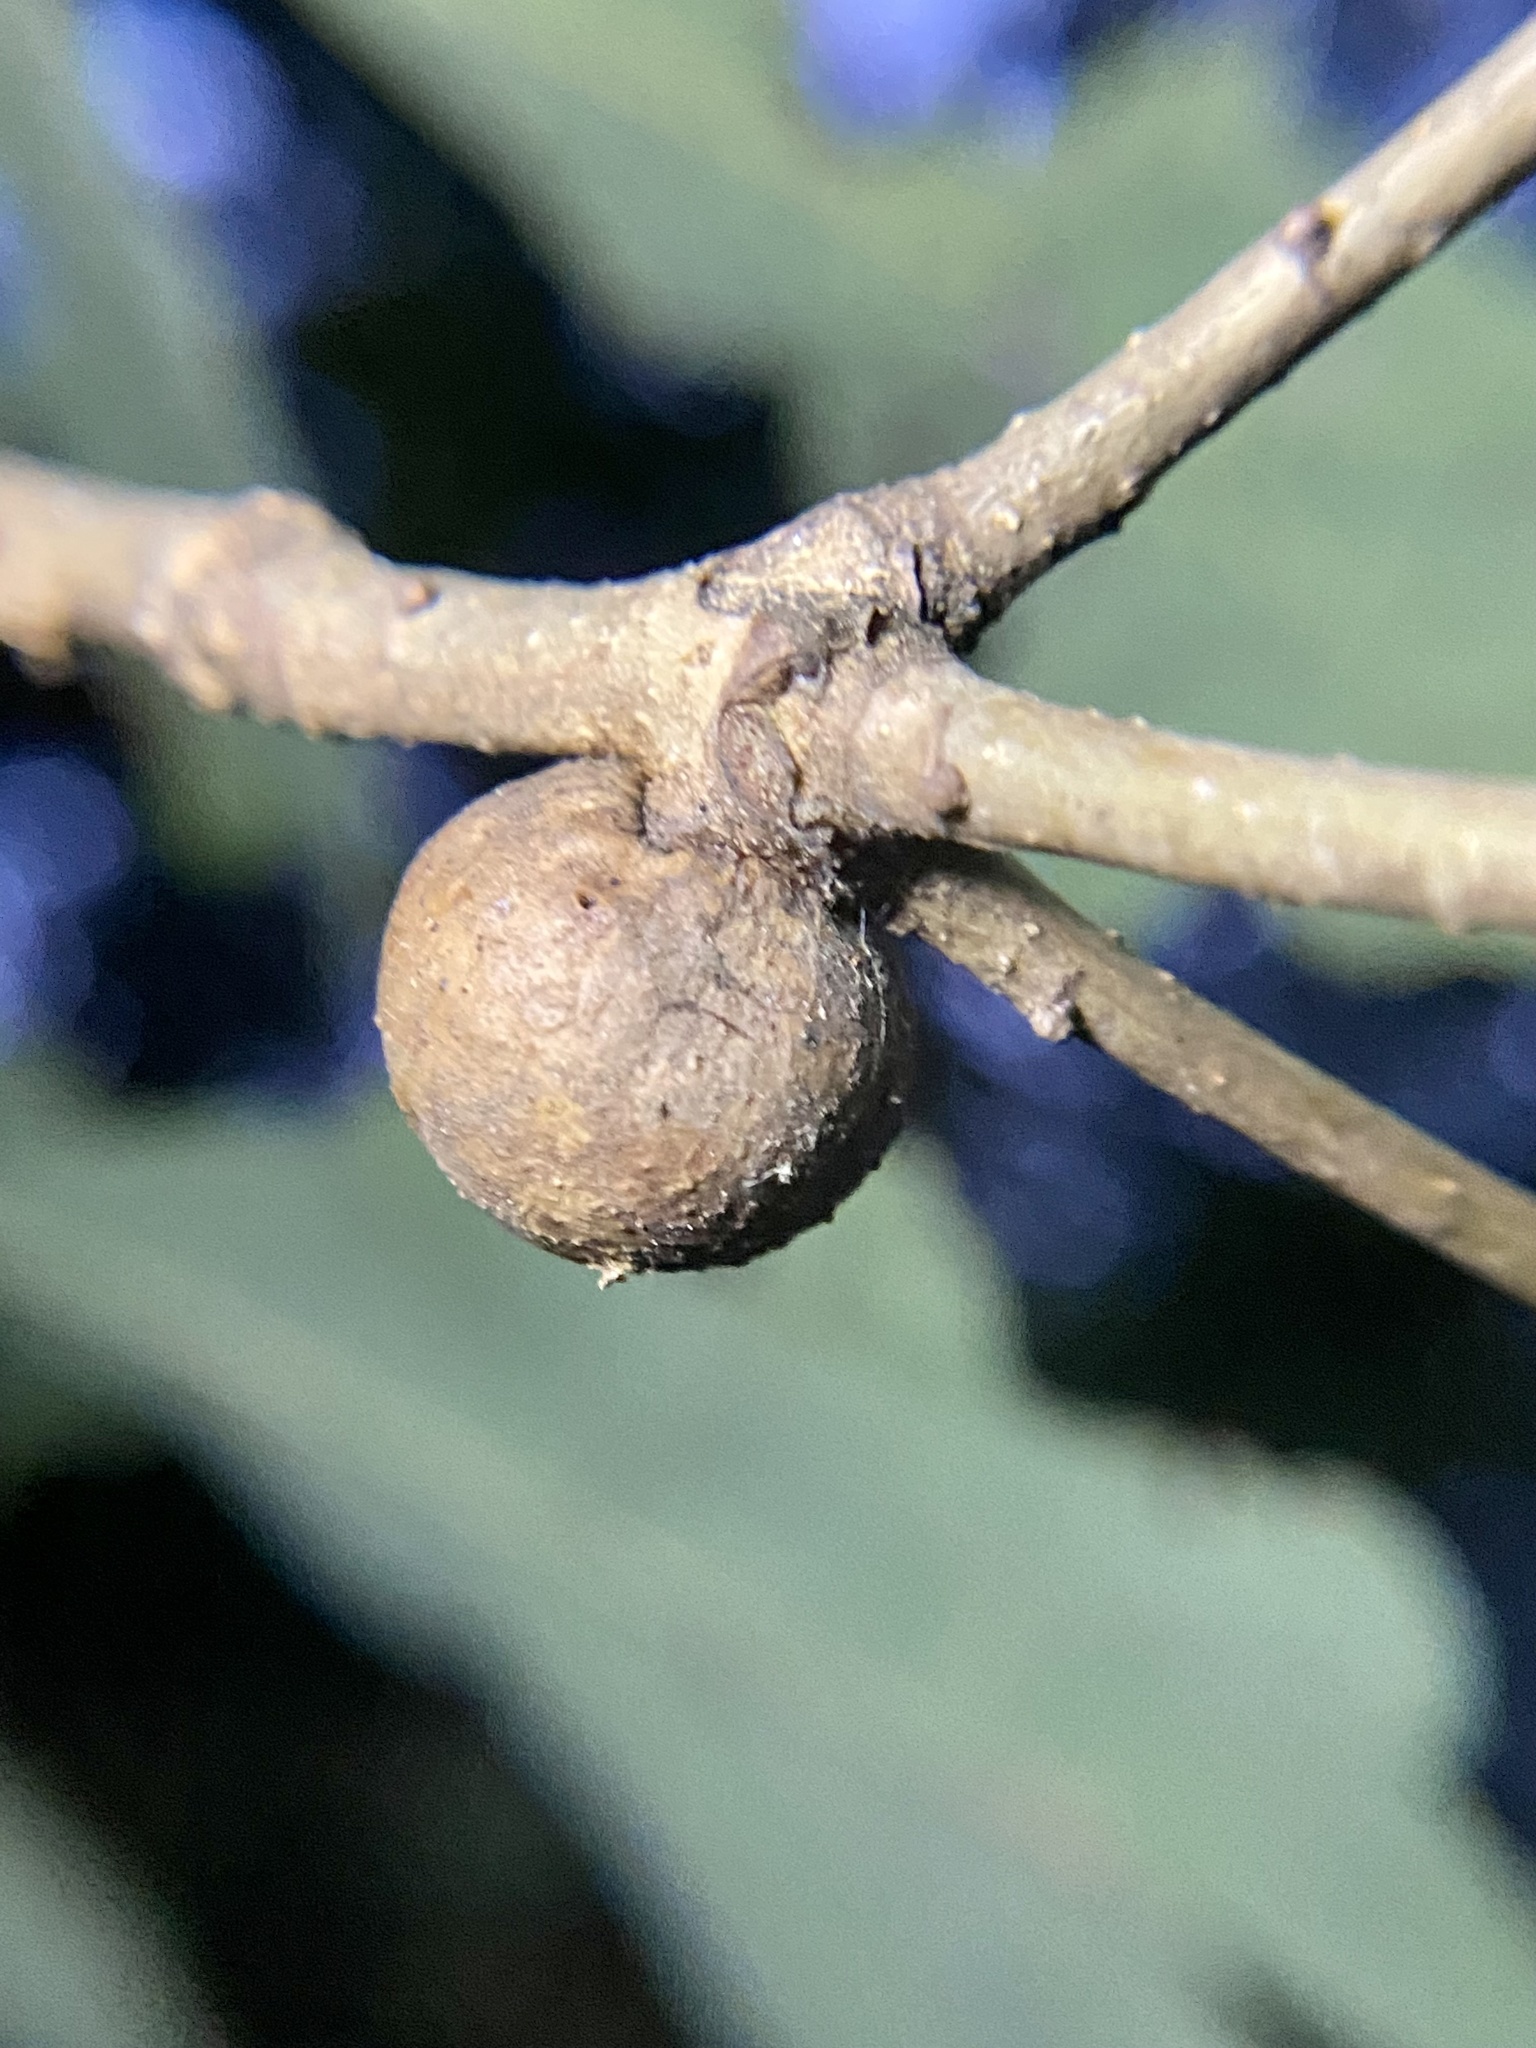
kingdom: Animalia
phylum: Arthropoda
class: Insecta
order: Hymenoptera
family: Cynipidae
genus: Disholcaspis
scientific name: Disholcaspis quercusglobulus
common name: Round bullet gall wasp
